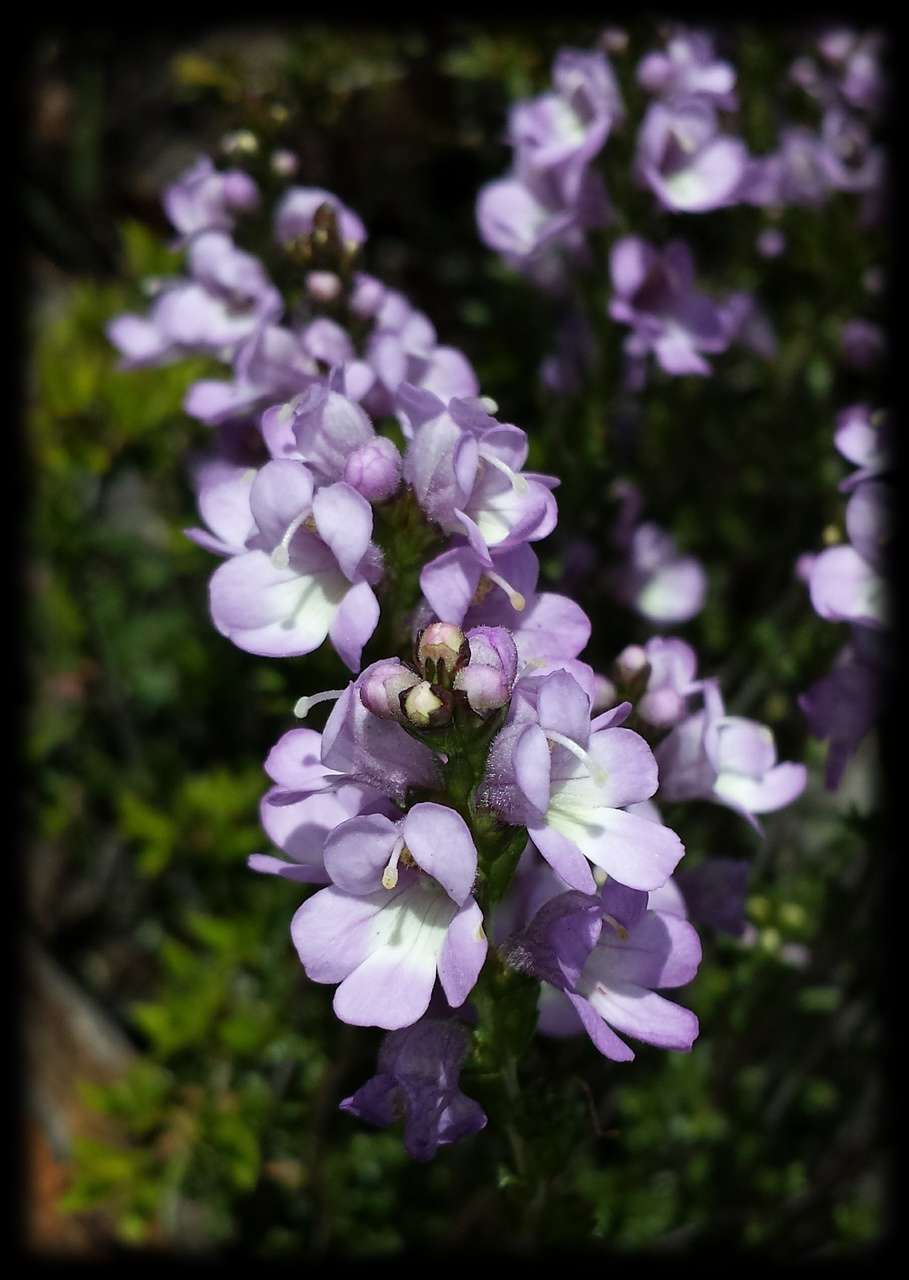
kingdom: Plantae
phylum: Tracheophyta
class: Magnoliopsida
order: Lamiales
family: Orobanchaceae
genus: Euphrasia
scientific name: Euphrasia collina
